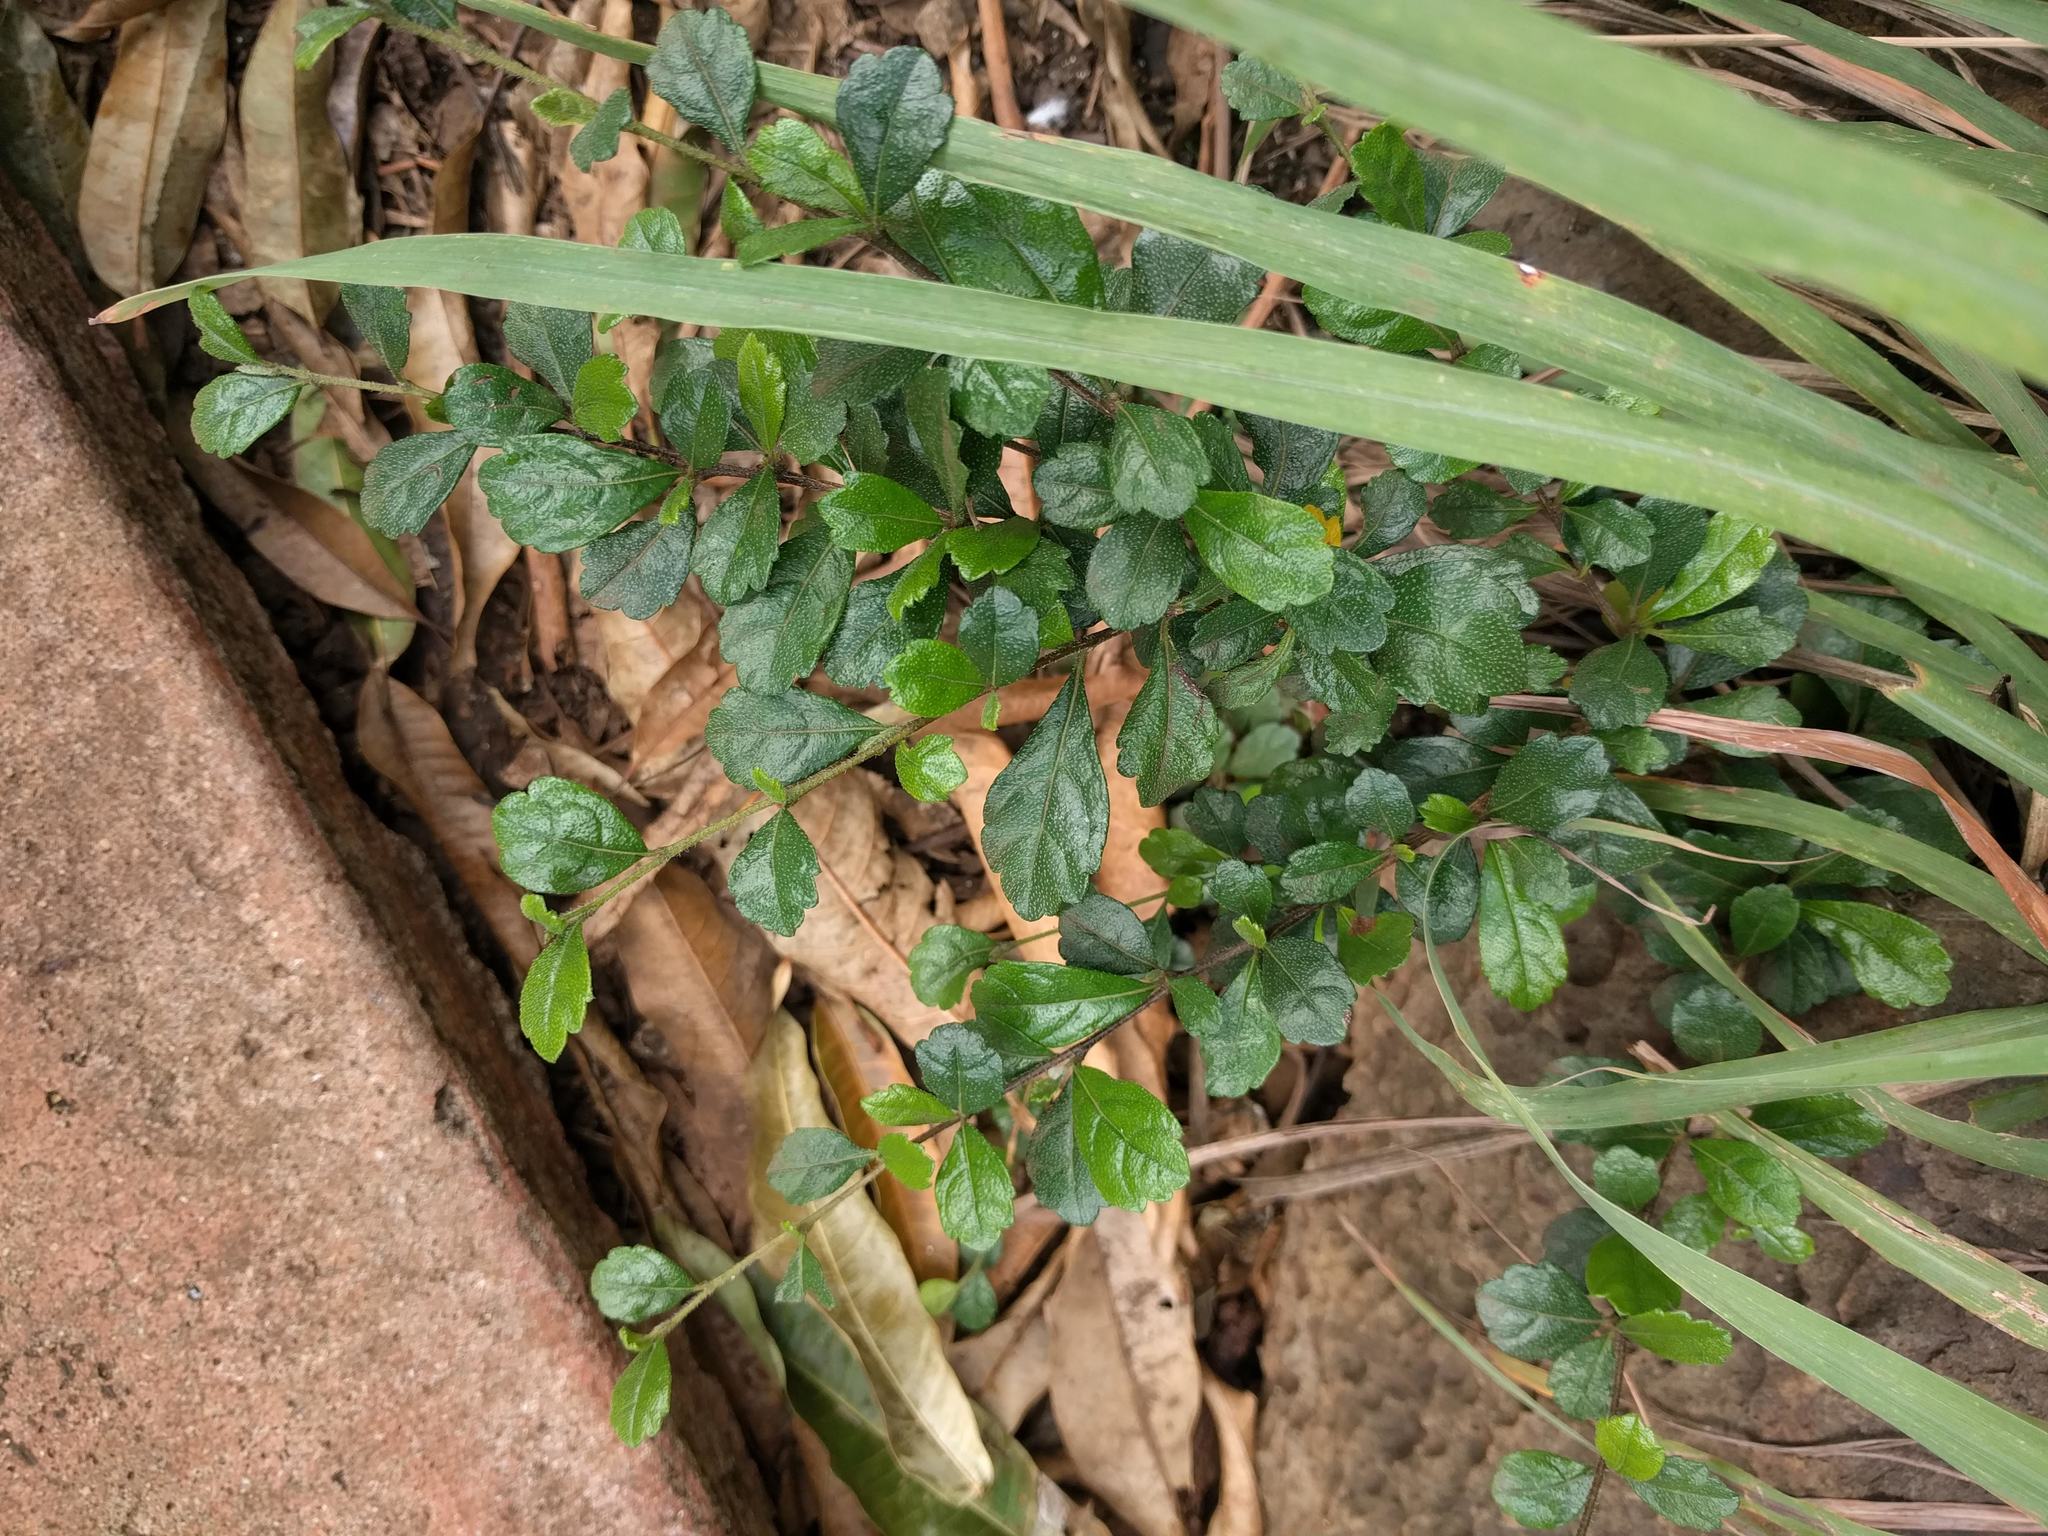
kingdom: Plantae
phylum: Tracheophyta
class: Magnoliopsida
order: Boraginales
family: Ehretiaceae
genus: Ehretia
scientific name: Ehretia microphylla
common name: Fukien-tea
